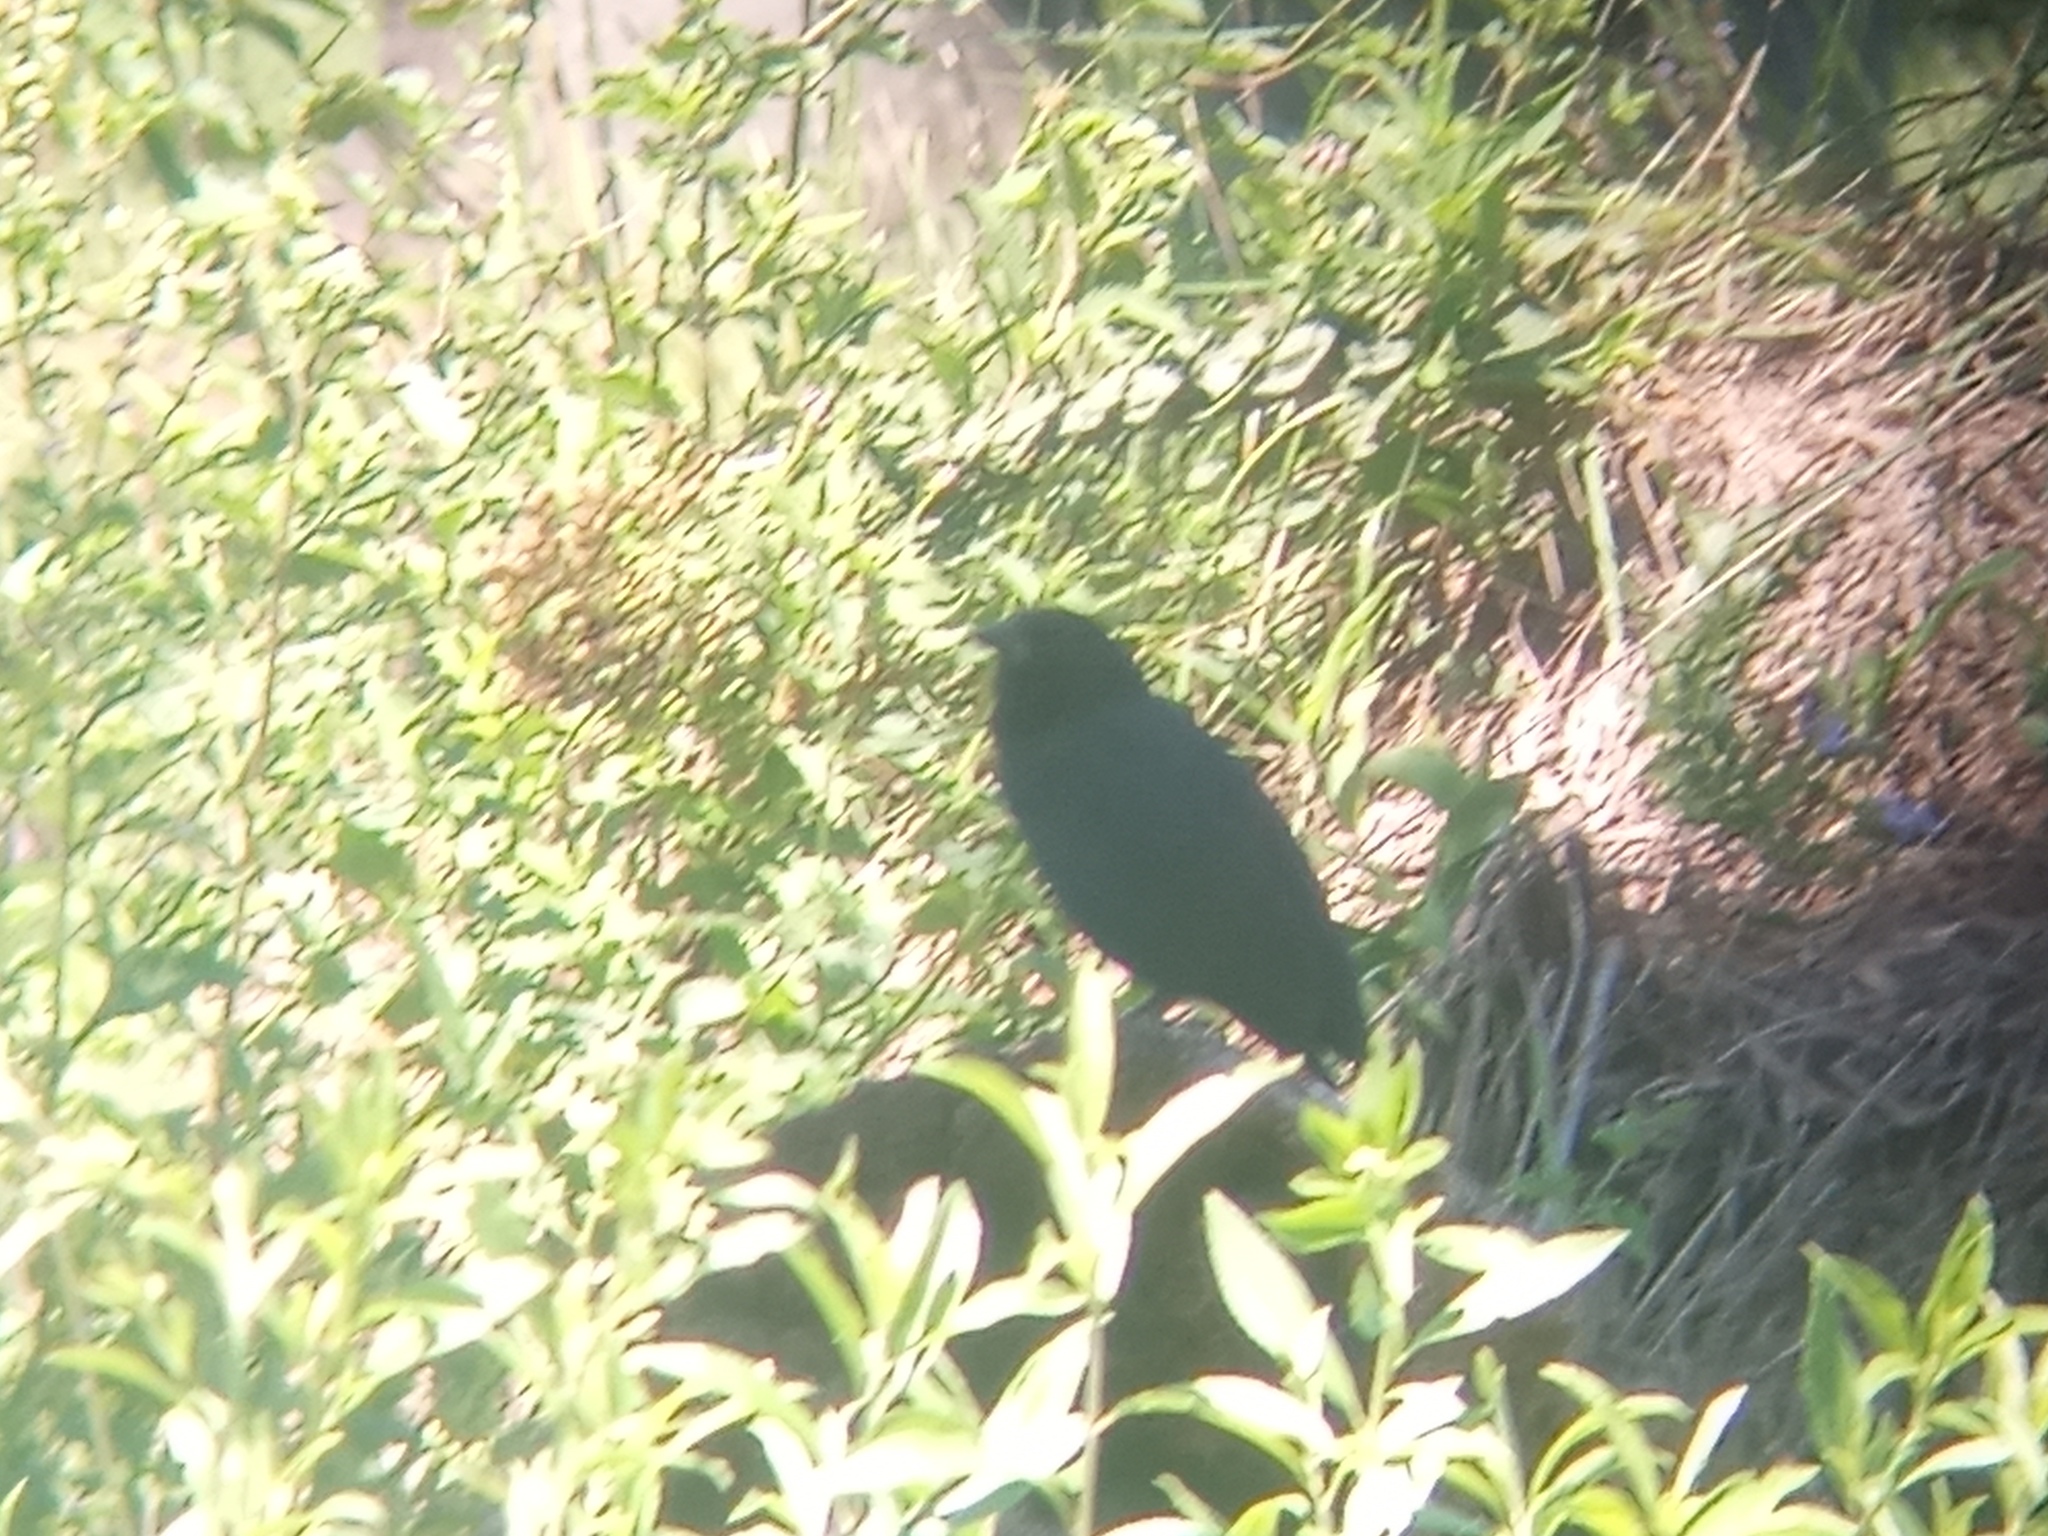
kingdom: Animalia
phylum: Chordata
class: Aves
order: Passeriformes
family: Icteridae
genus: Gnorimopsar
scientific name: Gnorimopsar chopi
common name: Chopi blackbird
